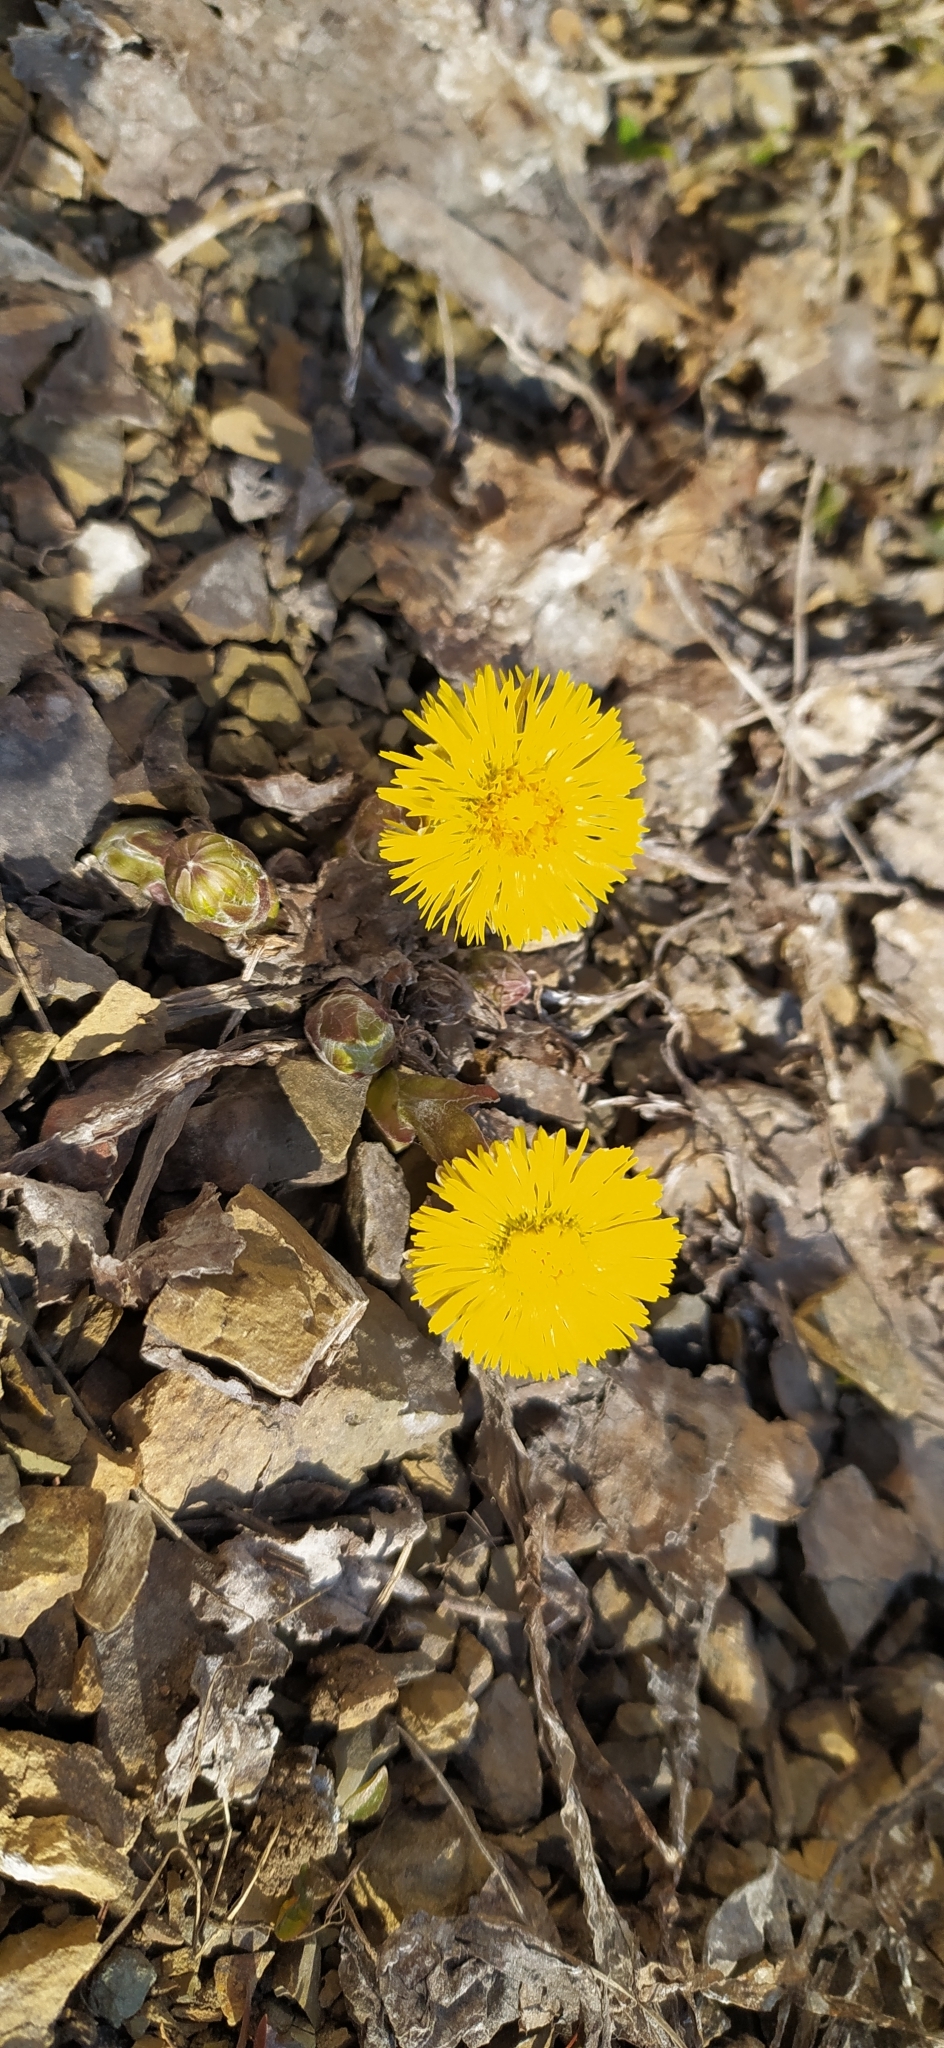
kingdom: Plantae
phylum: Tracheophyta
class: Magnoliopsida
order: Asterales
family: Asteraceae
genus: Tussilago
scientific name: Tussilago farfara
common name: Coltsfoot
